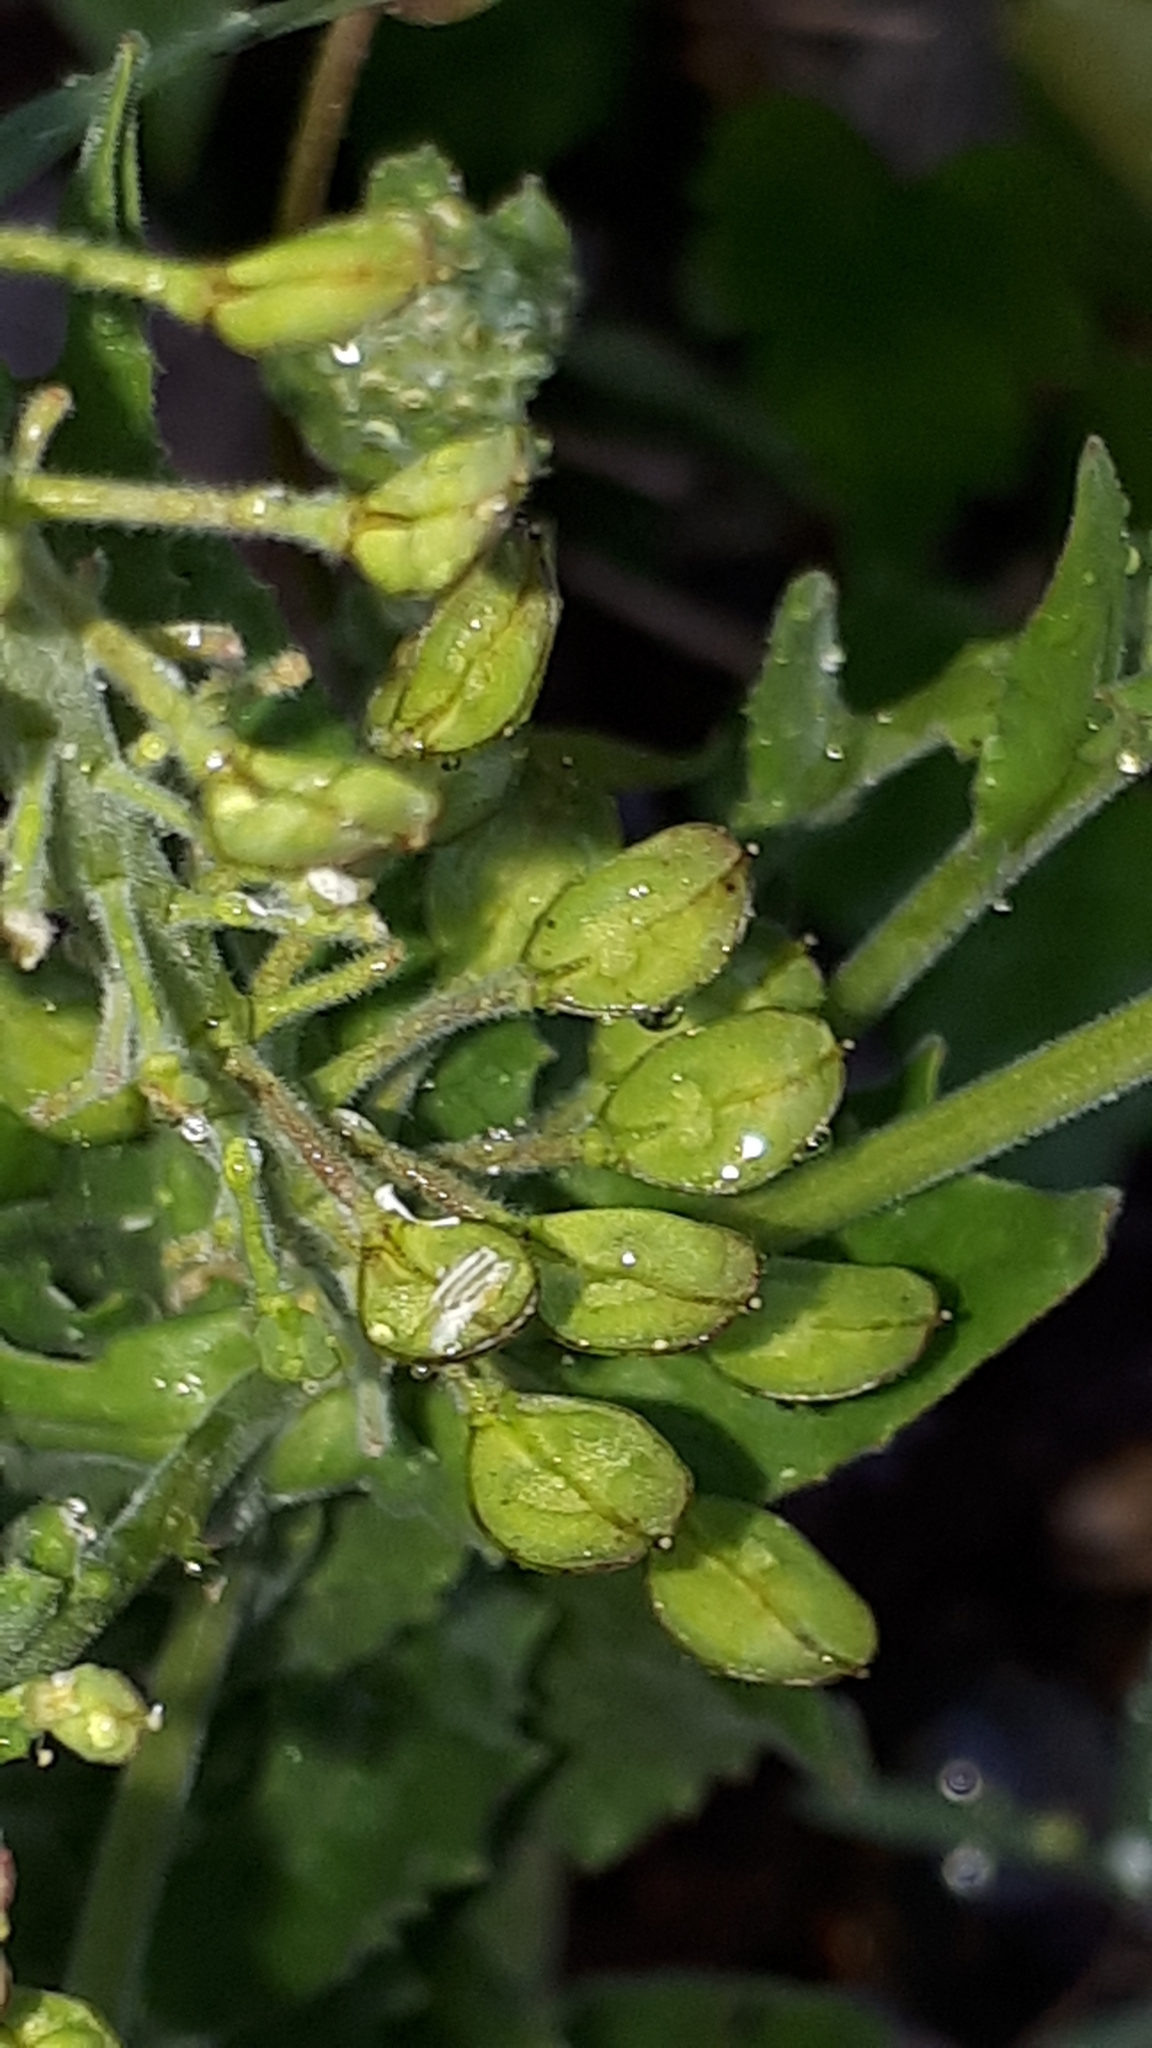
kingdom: Plantae
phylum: Tracheophyta
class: Magnoliopsida
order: Brassicales
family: Brassicaceae
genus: Lepidium
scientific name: Lepidium heterophyllum
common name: Smith's pepperwort
